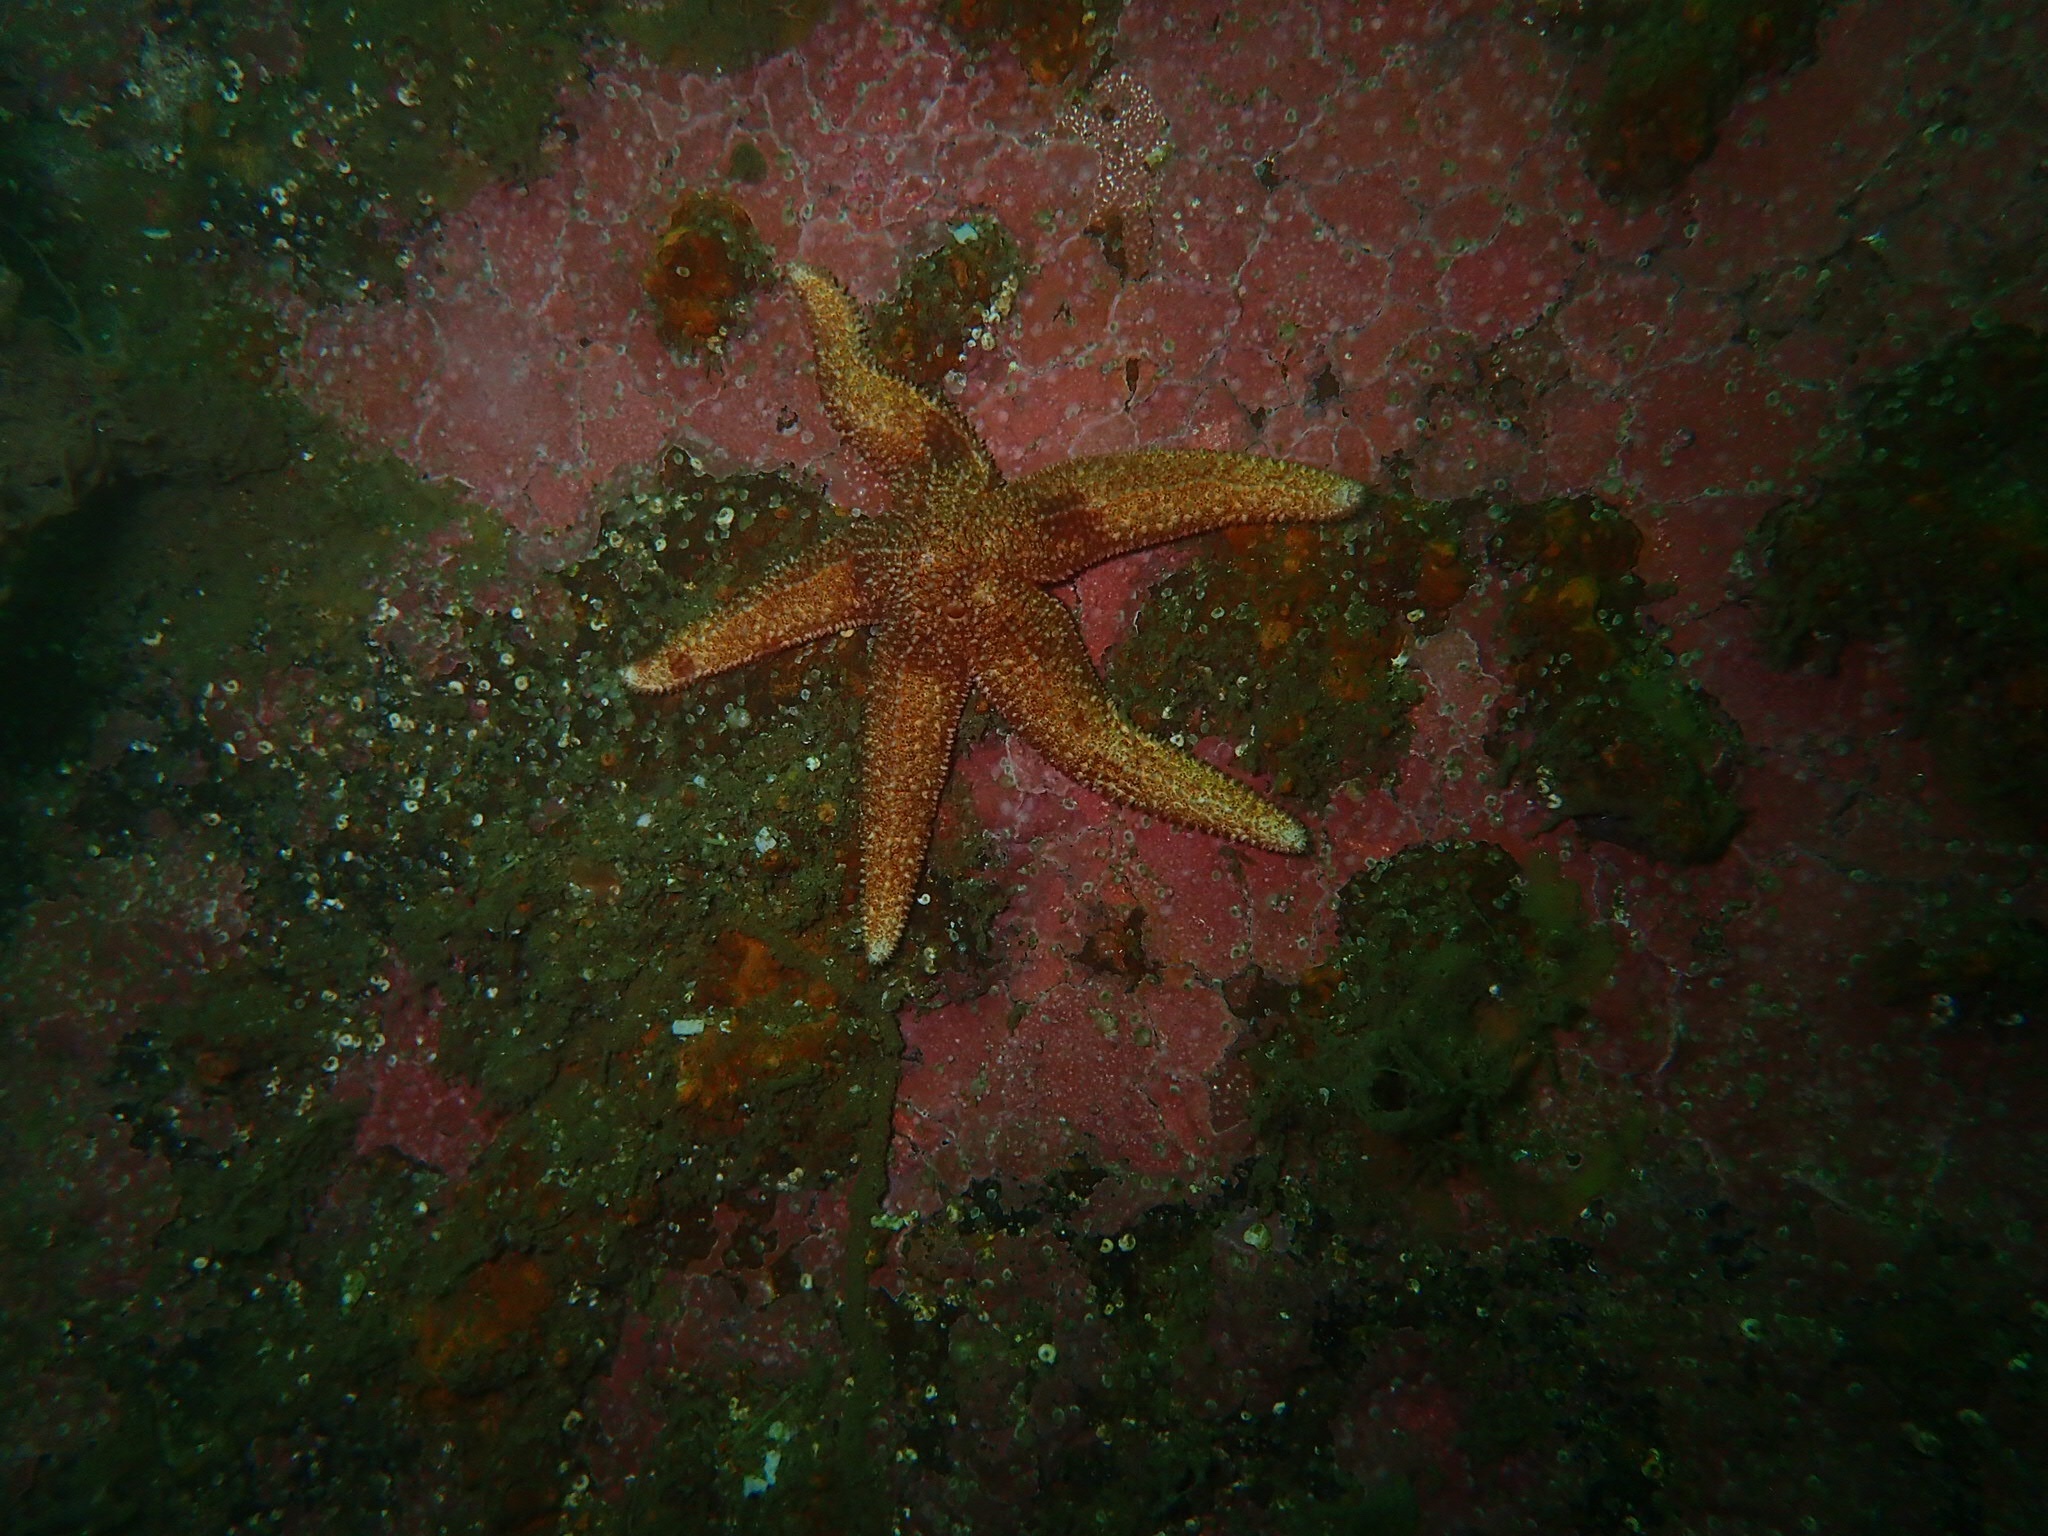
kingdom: Animalia
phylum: Echinodermata
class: Asteroidea
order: Forcipulatida
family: Asteriidae
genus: Asterias
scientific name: Asterias rubens
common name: Common starfish
